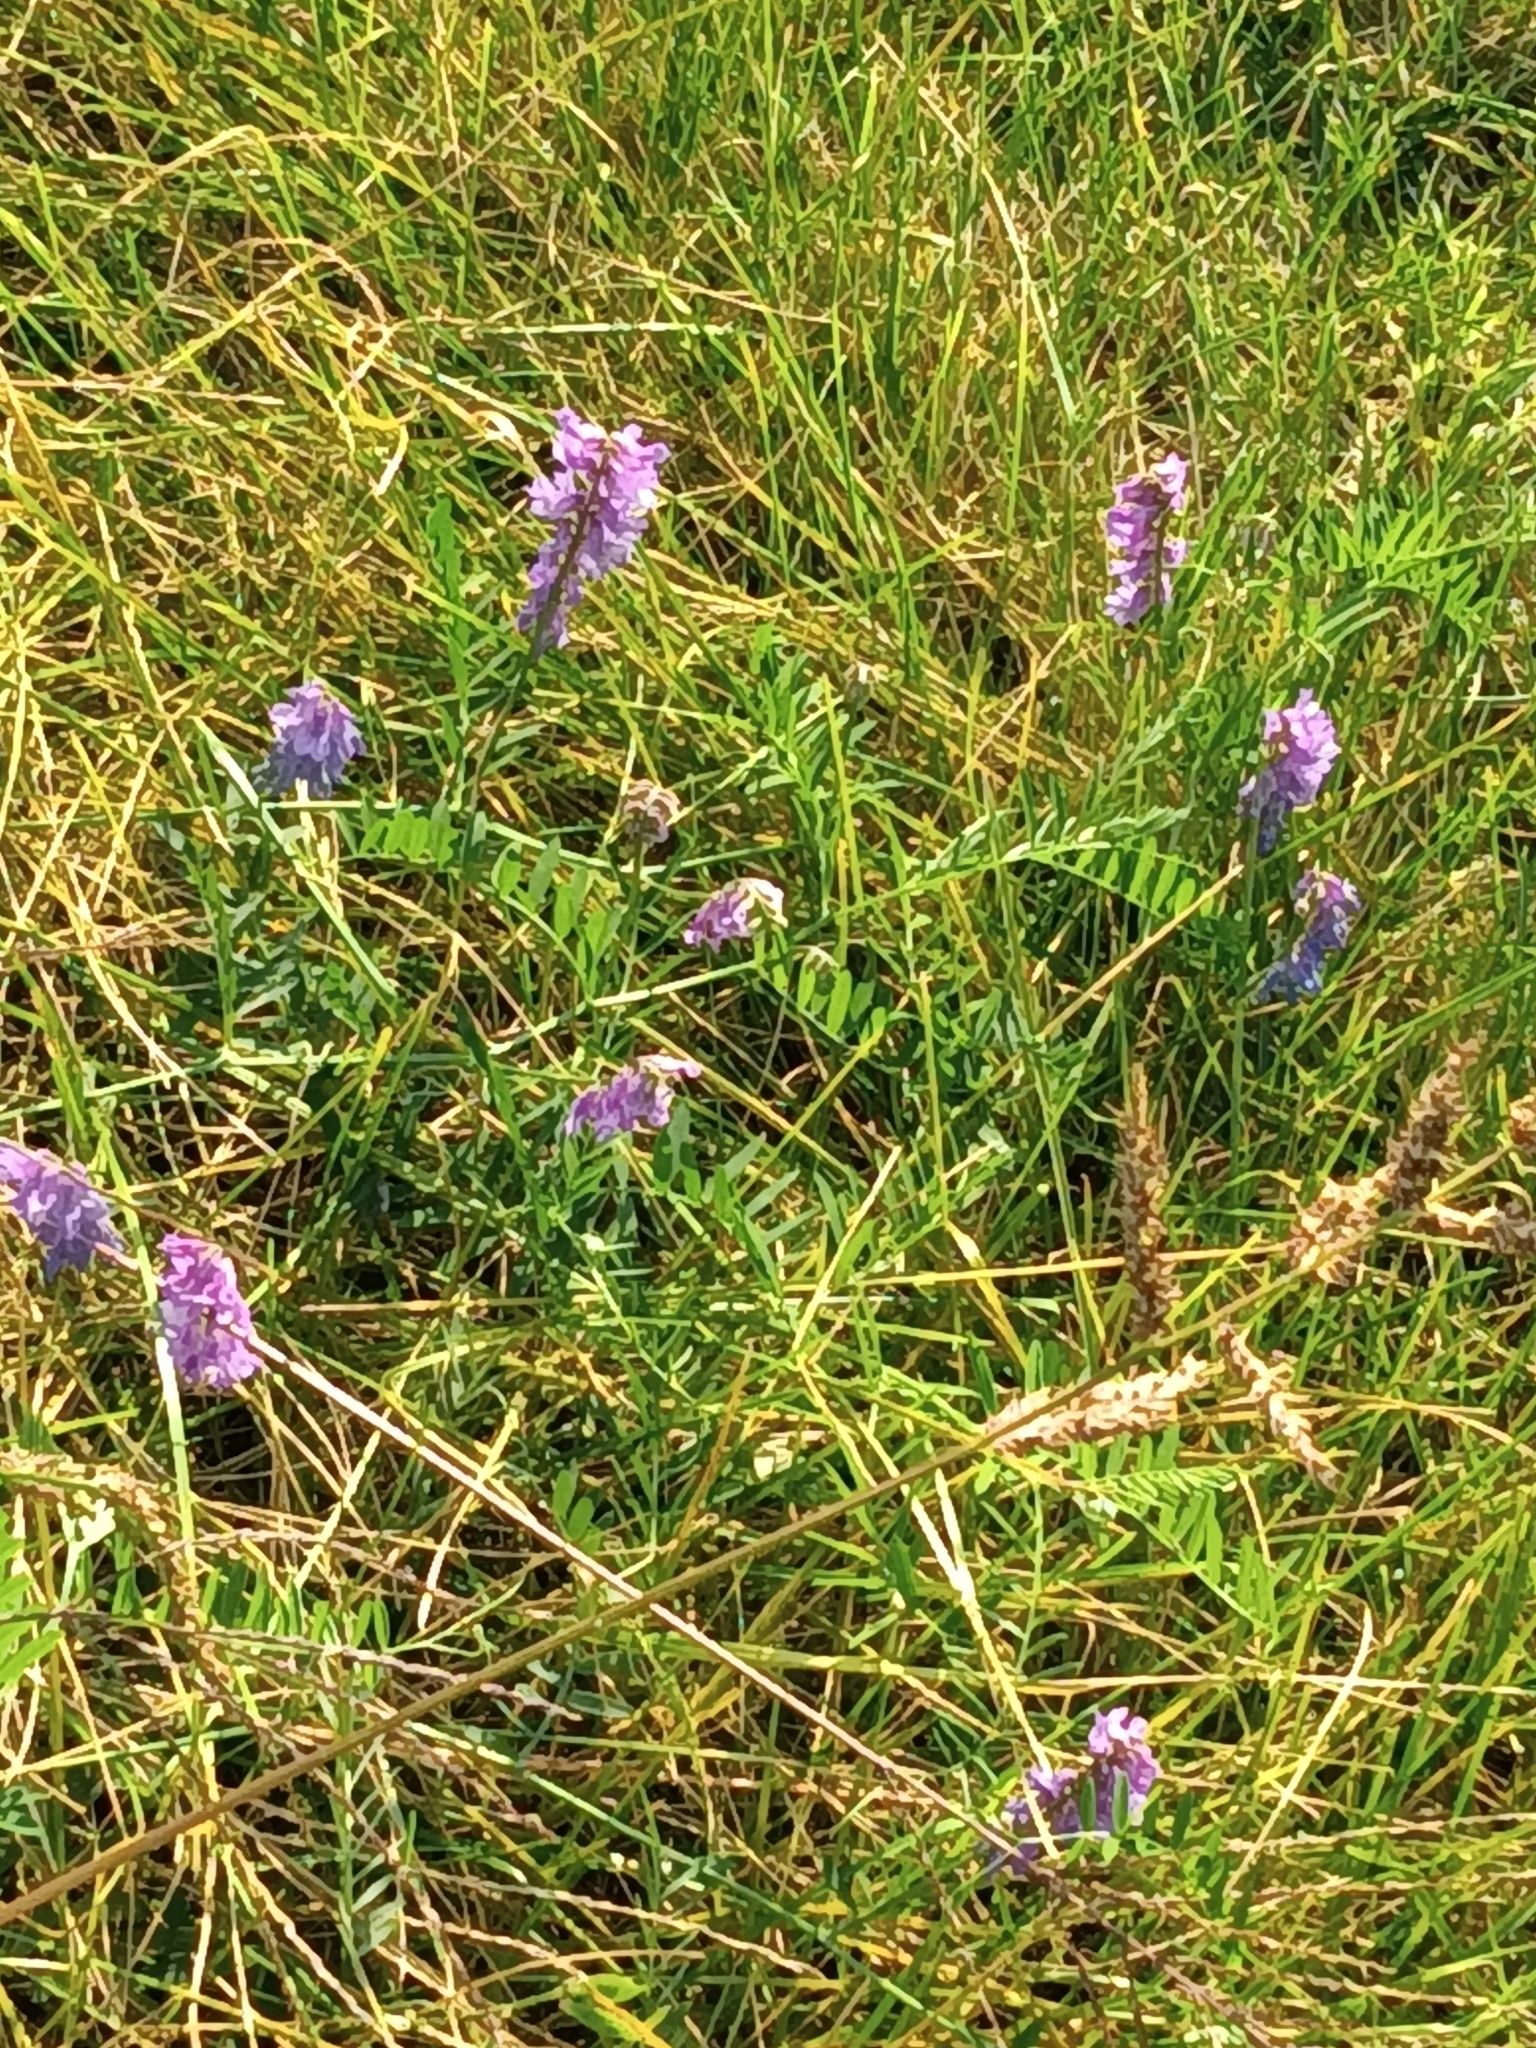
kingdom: Plantae
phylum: Tracheophyta
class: Magnoliopsida
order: Fabales
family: Fabaceae
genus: Vicia
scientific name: Vicia cracca
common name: Bird vetch
